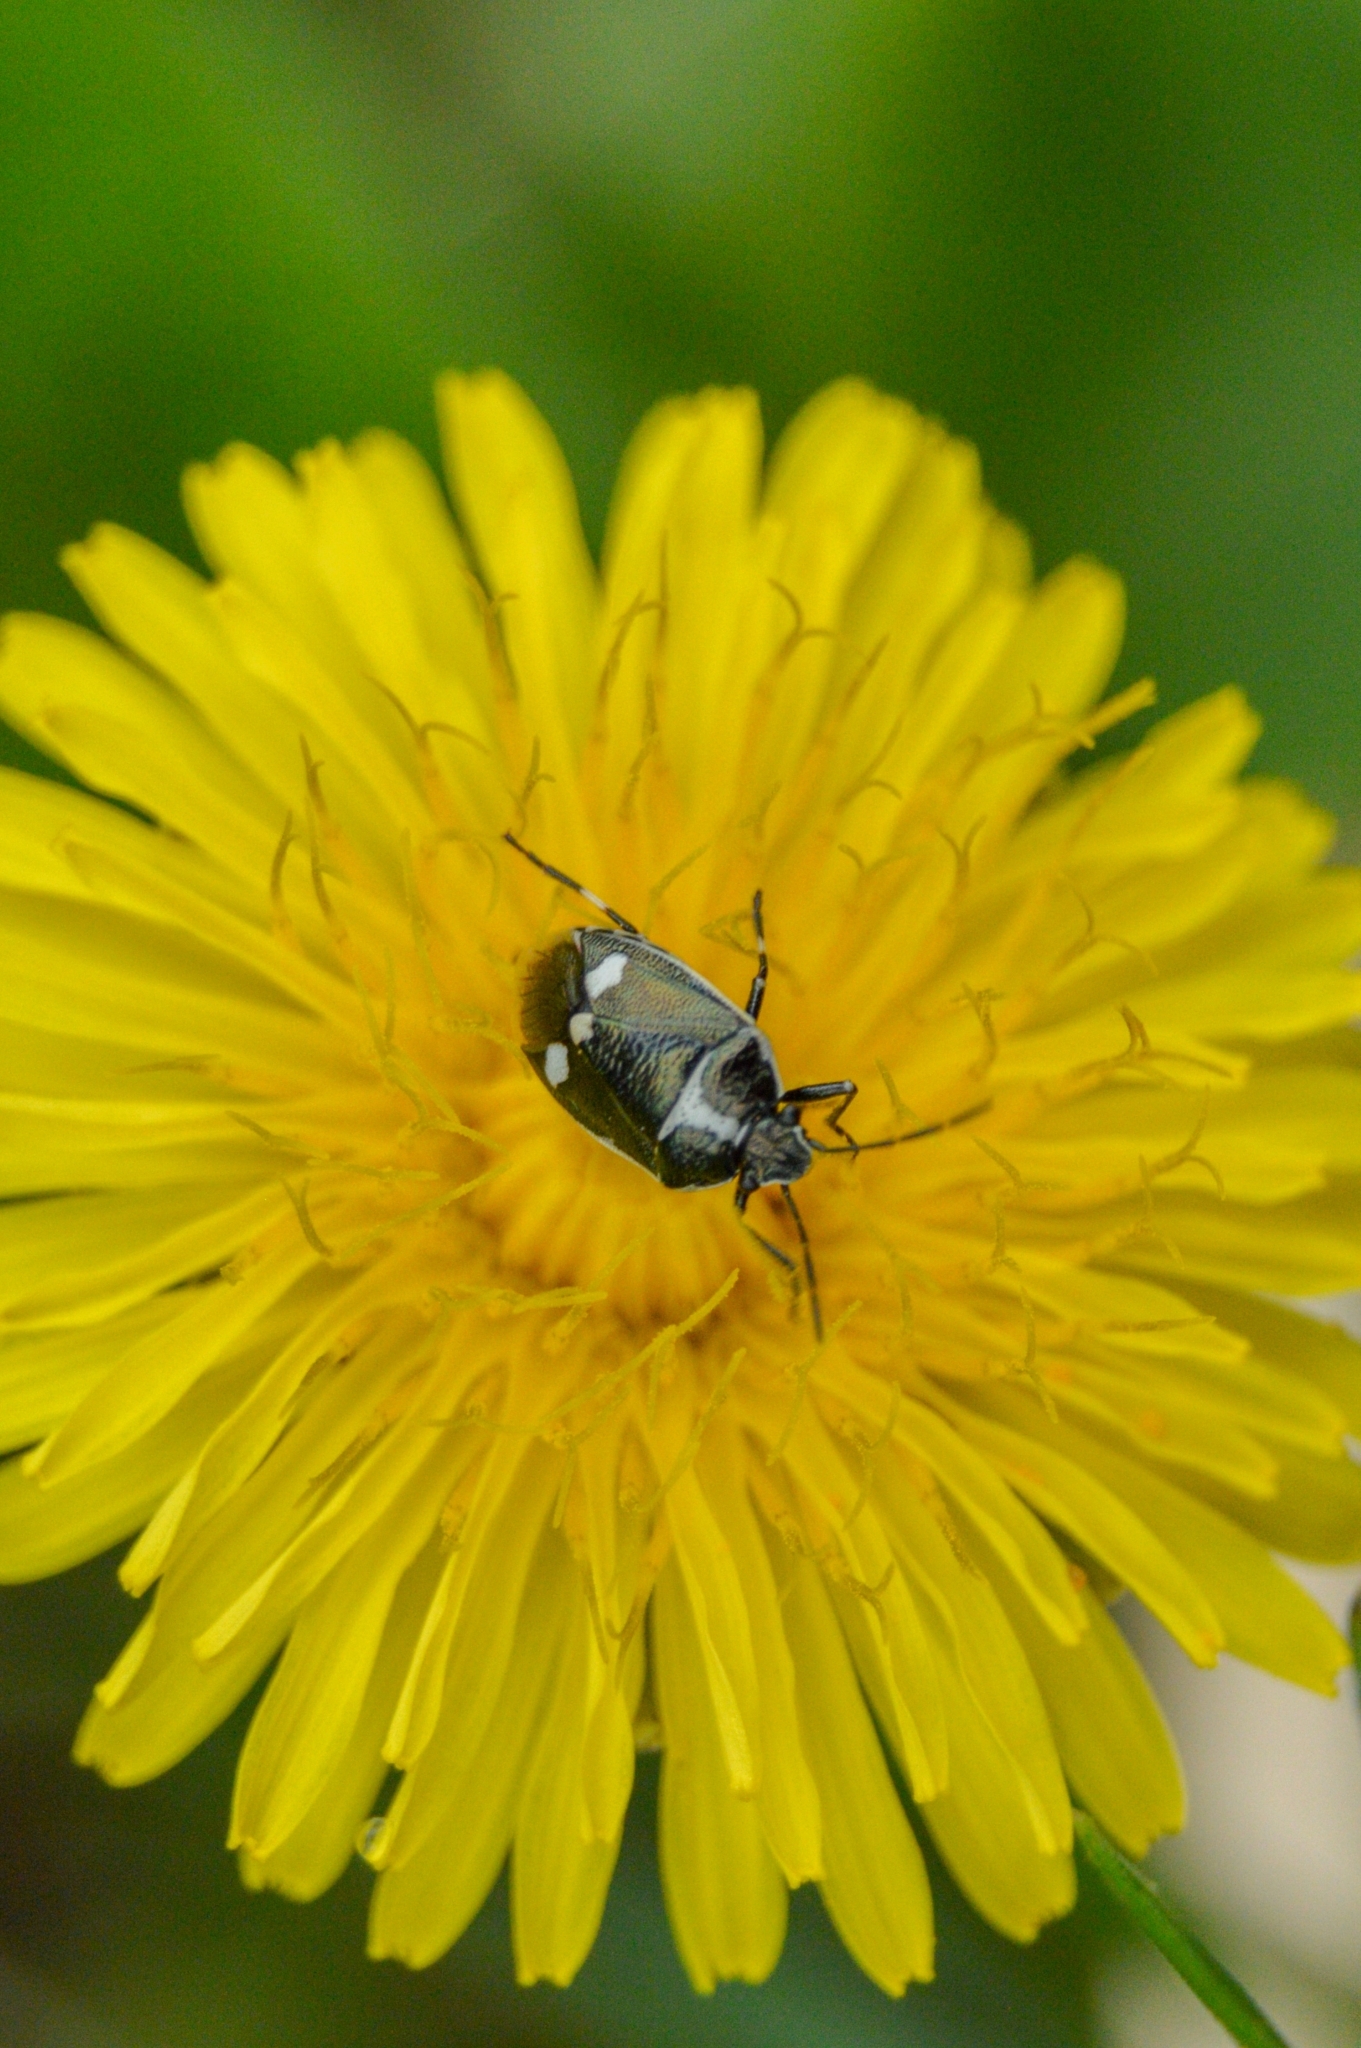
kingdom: Animalia
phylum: Arthropoda
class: Insecta
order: Hemiptera
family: Pentatomidae
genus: Eurydema
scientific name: Eurydema oleracea
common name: Cabbage bug
